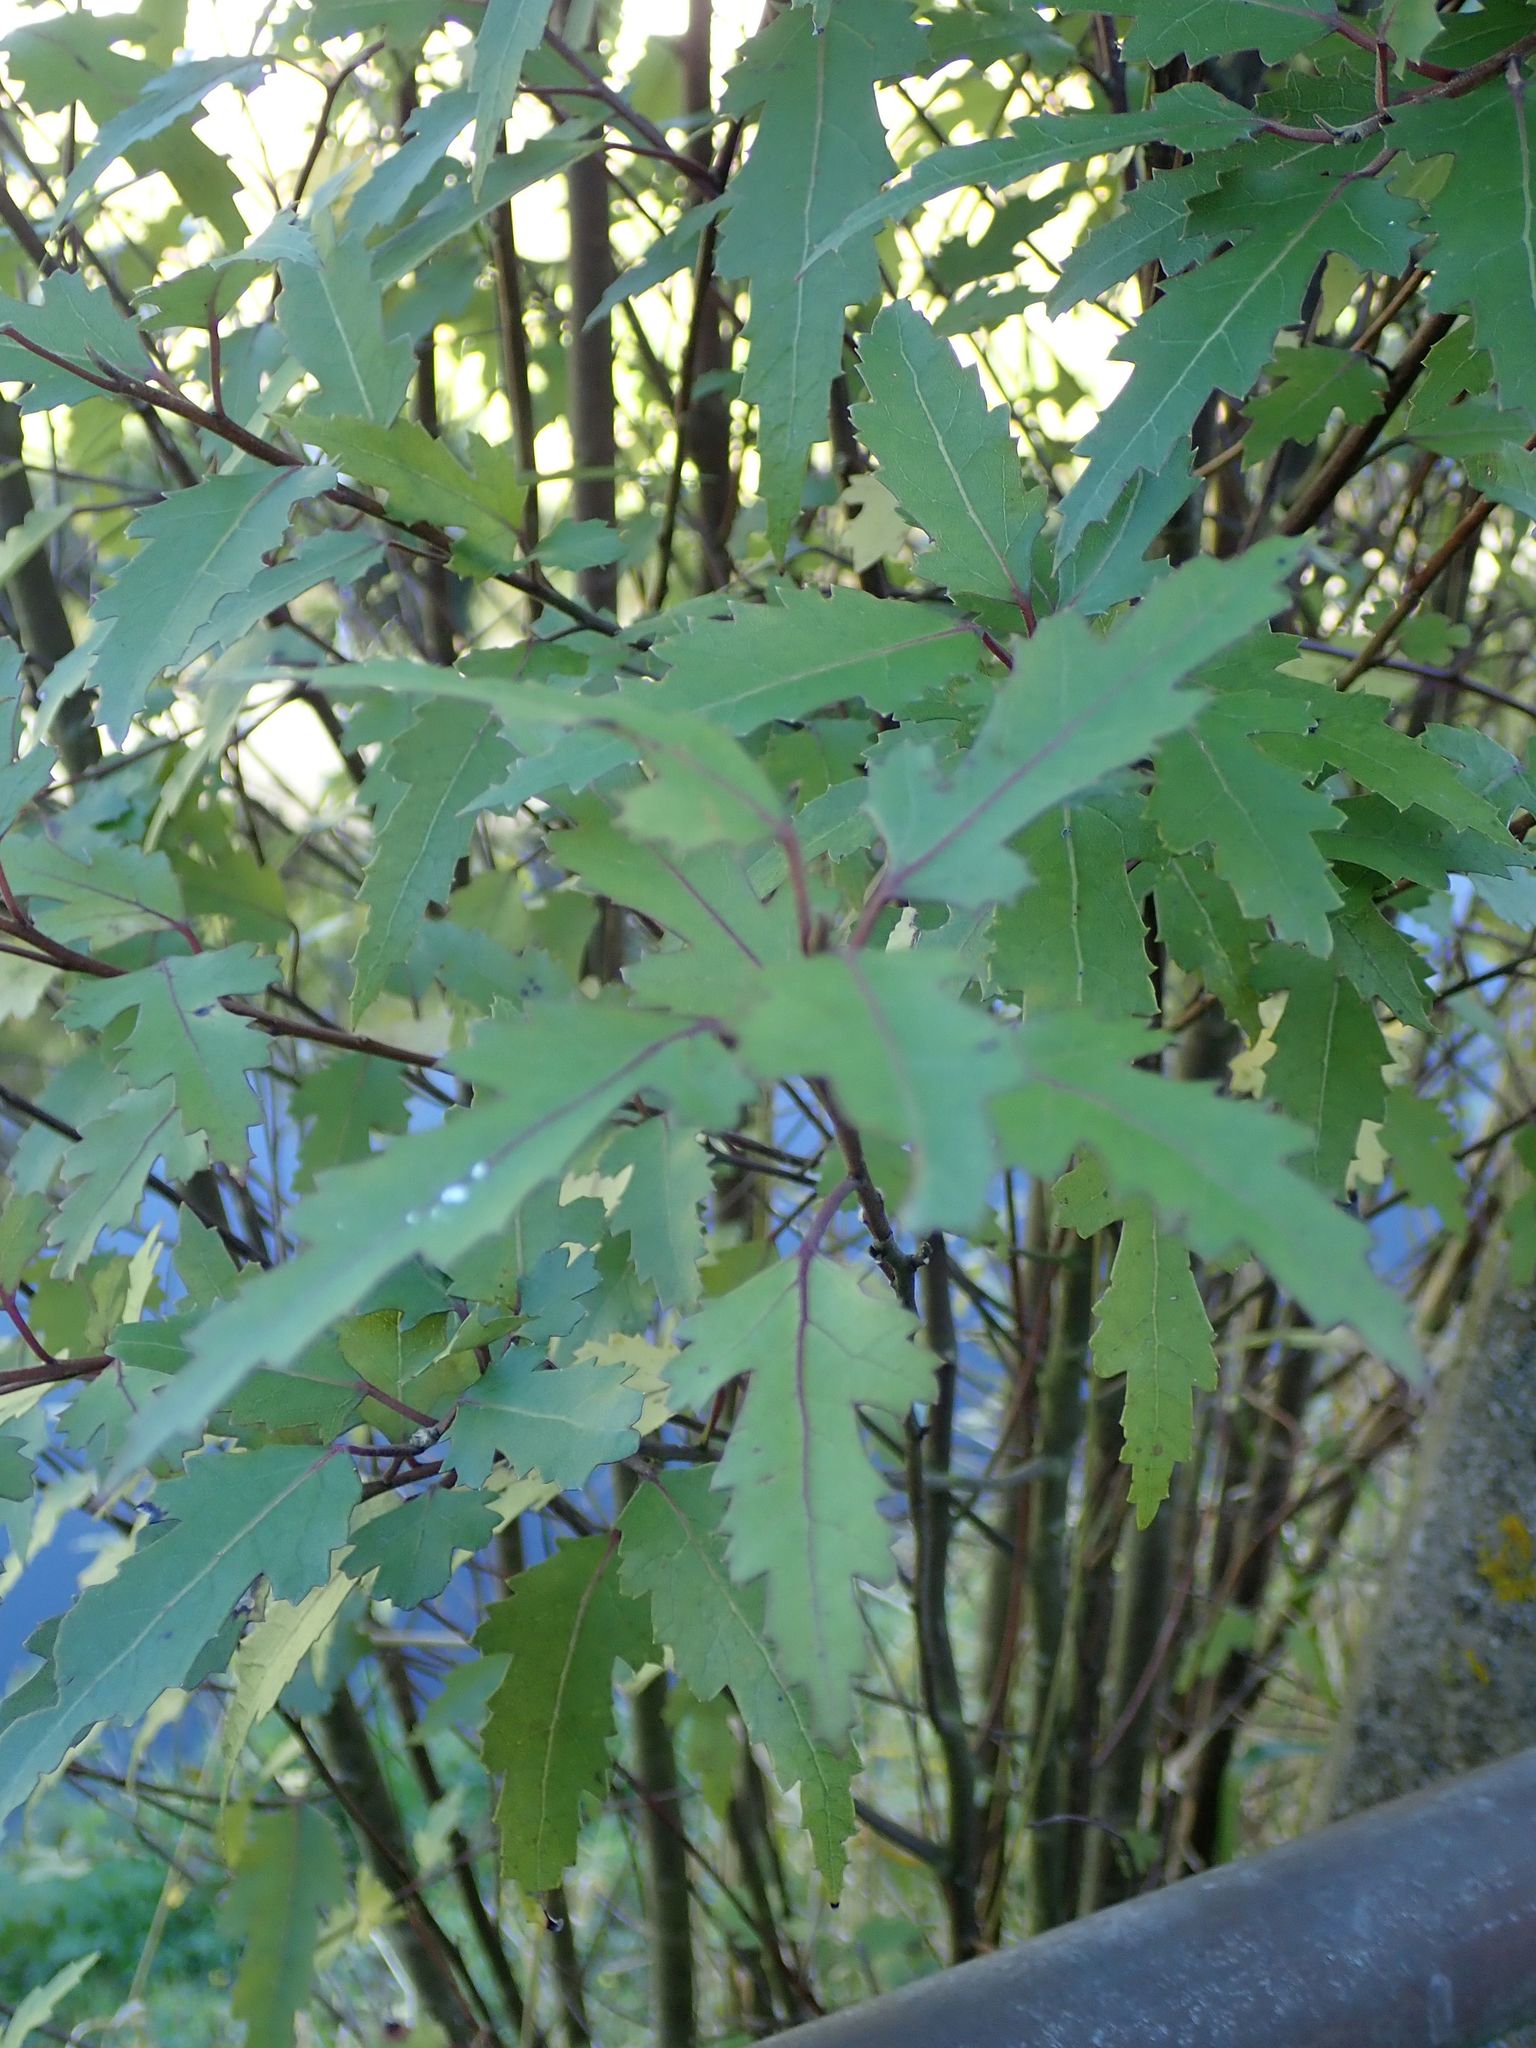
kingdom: Plantae
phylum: Tracheophyta
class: Magnoliopsida
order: Malvales
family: Malvaceae
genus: Hoheria
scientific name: Hoheria sexstylosa
